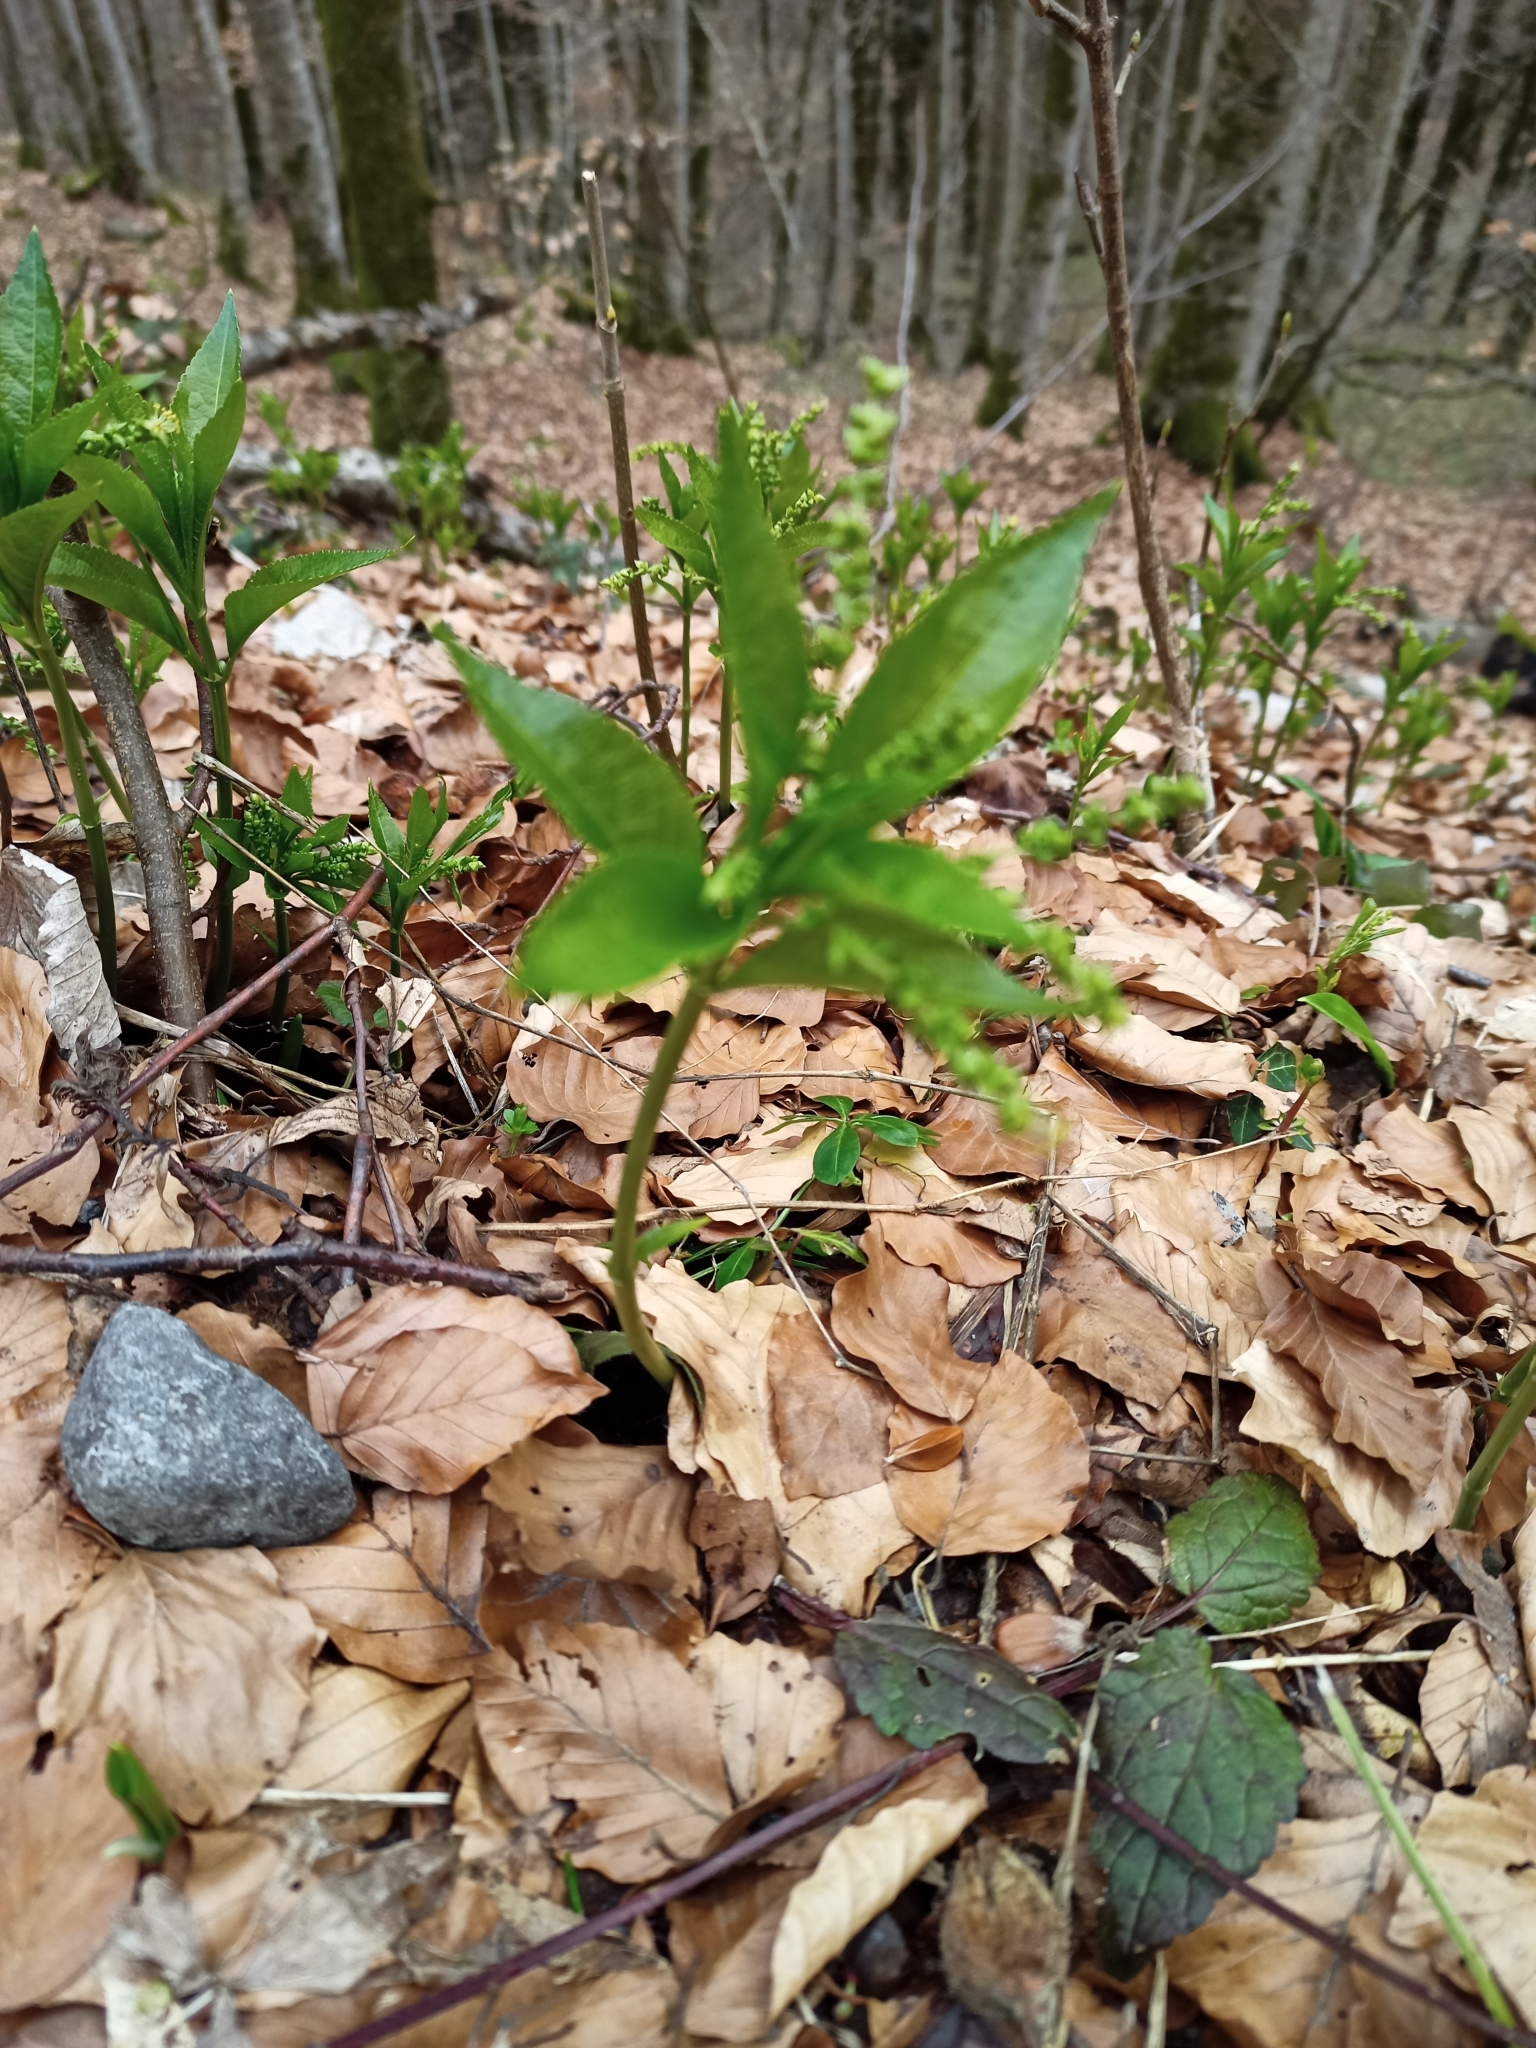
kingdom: Plantae
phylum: Tracheophyta
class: Magnoliopsida
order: Malpighiales
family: Euphorbiaceae
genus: Mercurialis
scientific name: Mercurialis perennis
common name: Dog mercury
